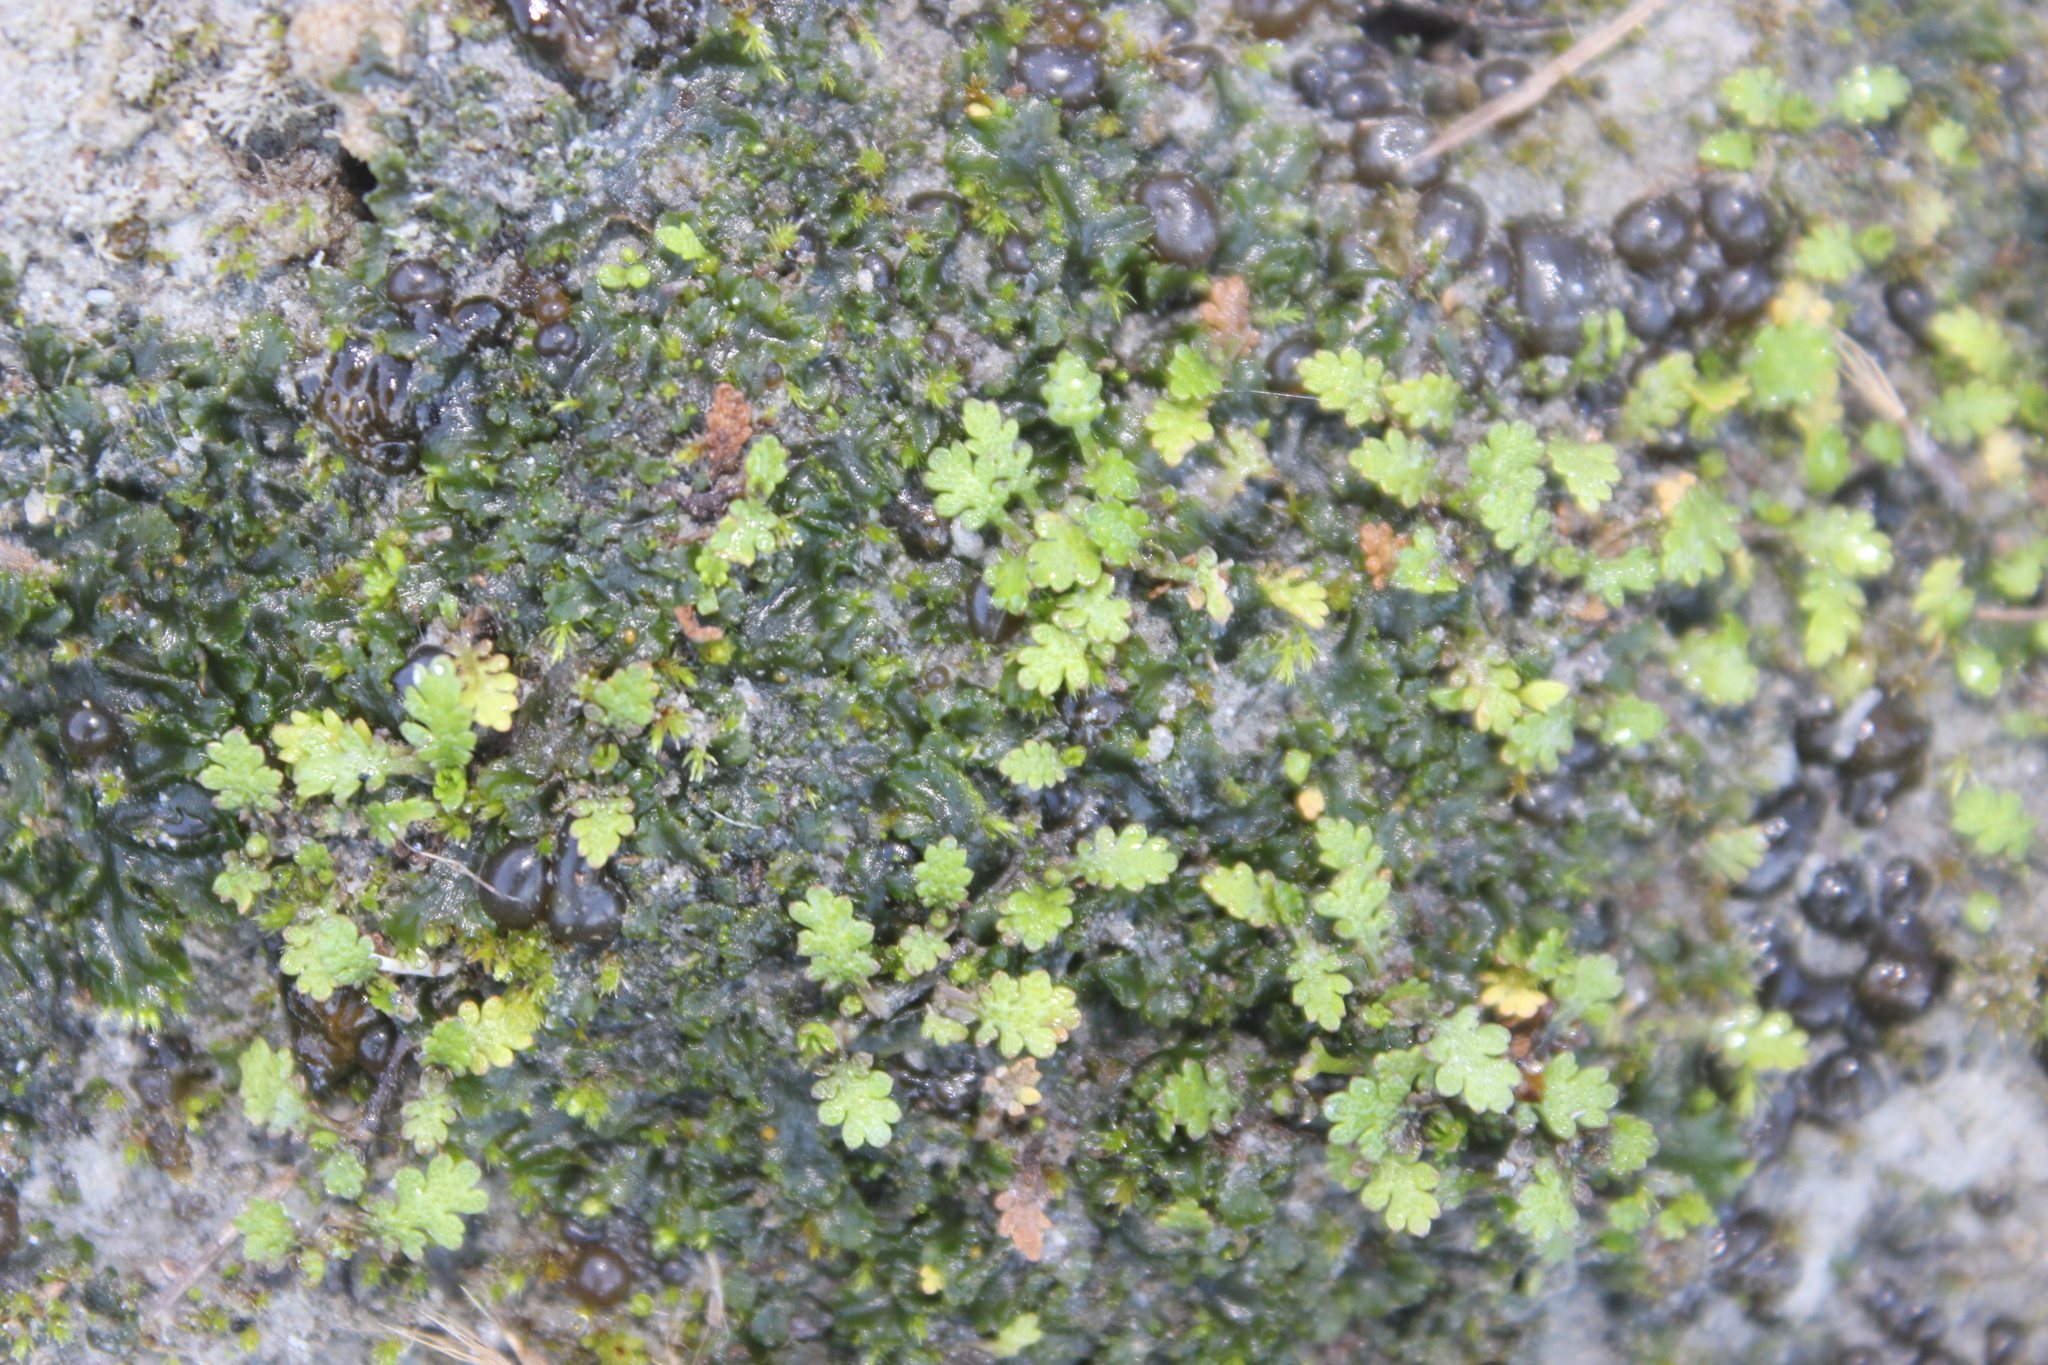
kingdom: Plantae
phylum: Tracheophyta
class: Magnoliopsida
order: Asterales
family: Asteraceae
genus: Leptinella
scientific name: Leptinella dispersa
